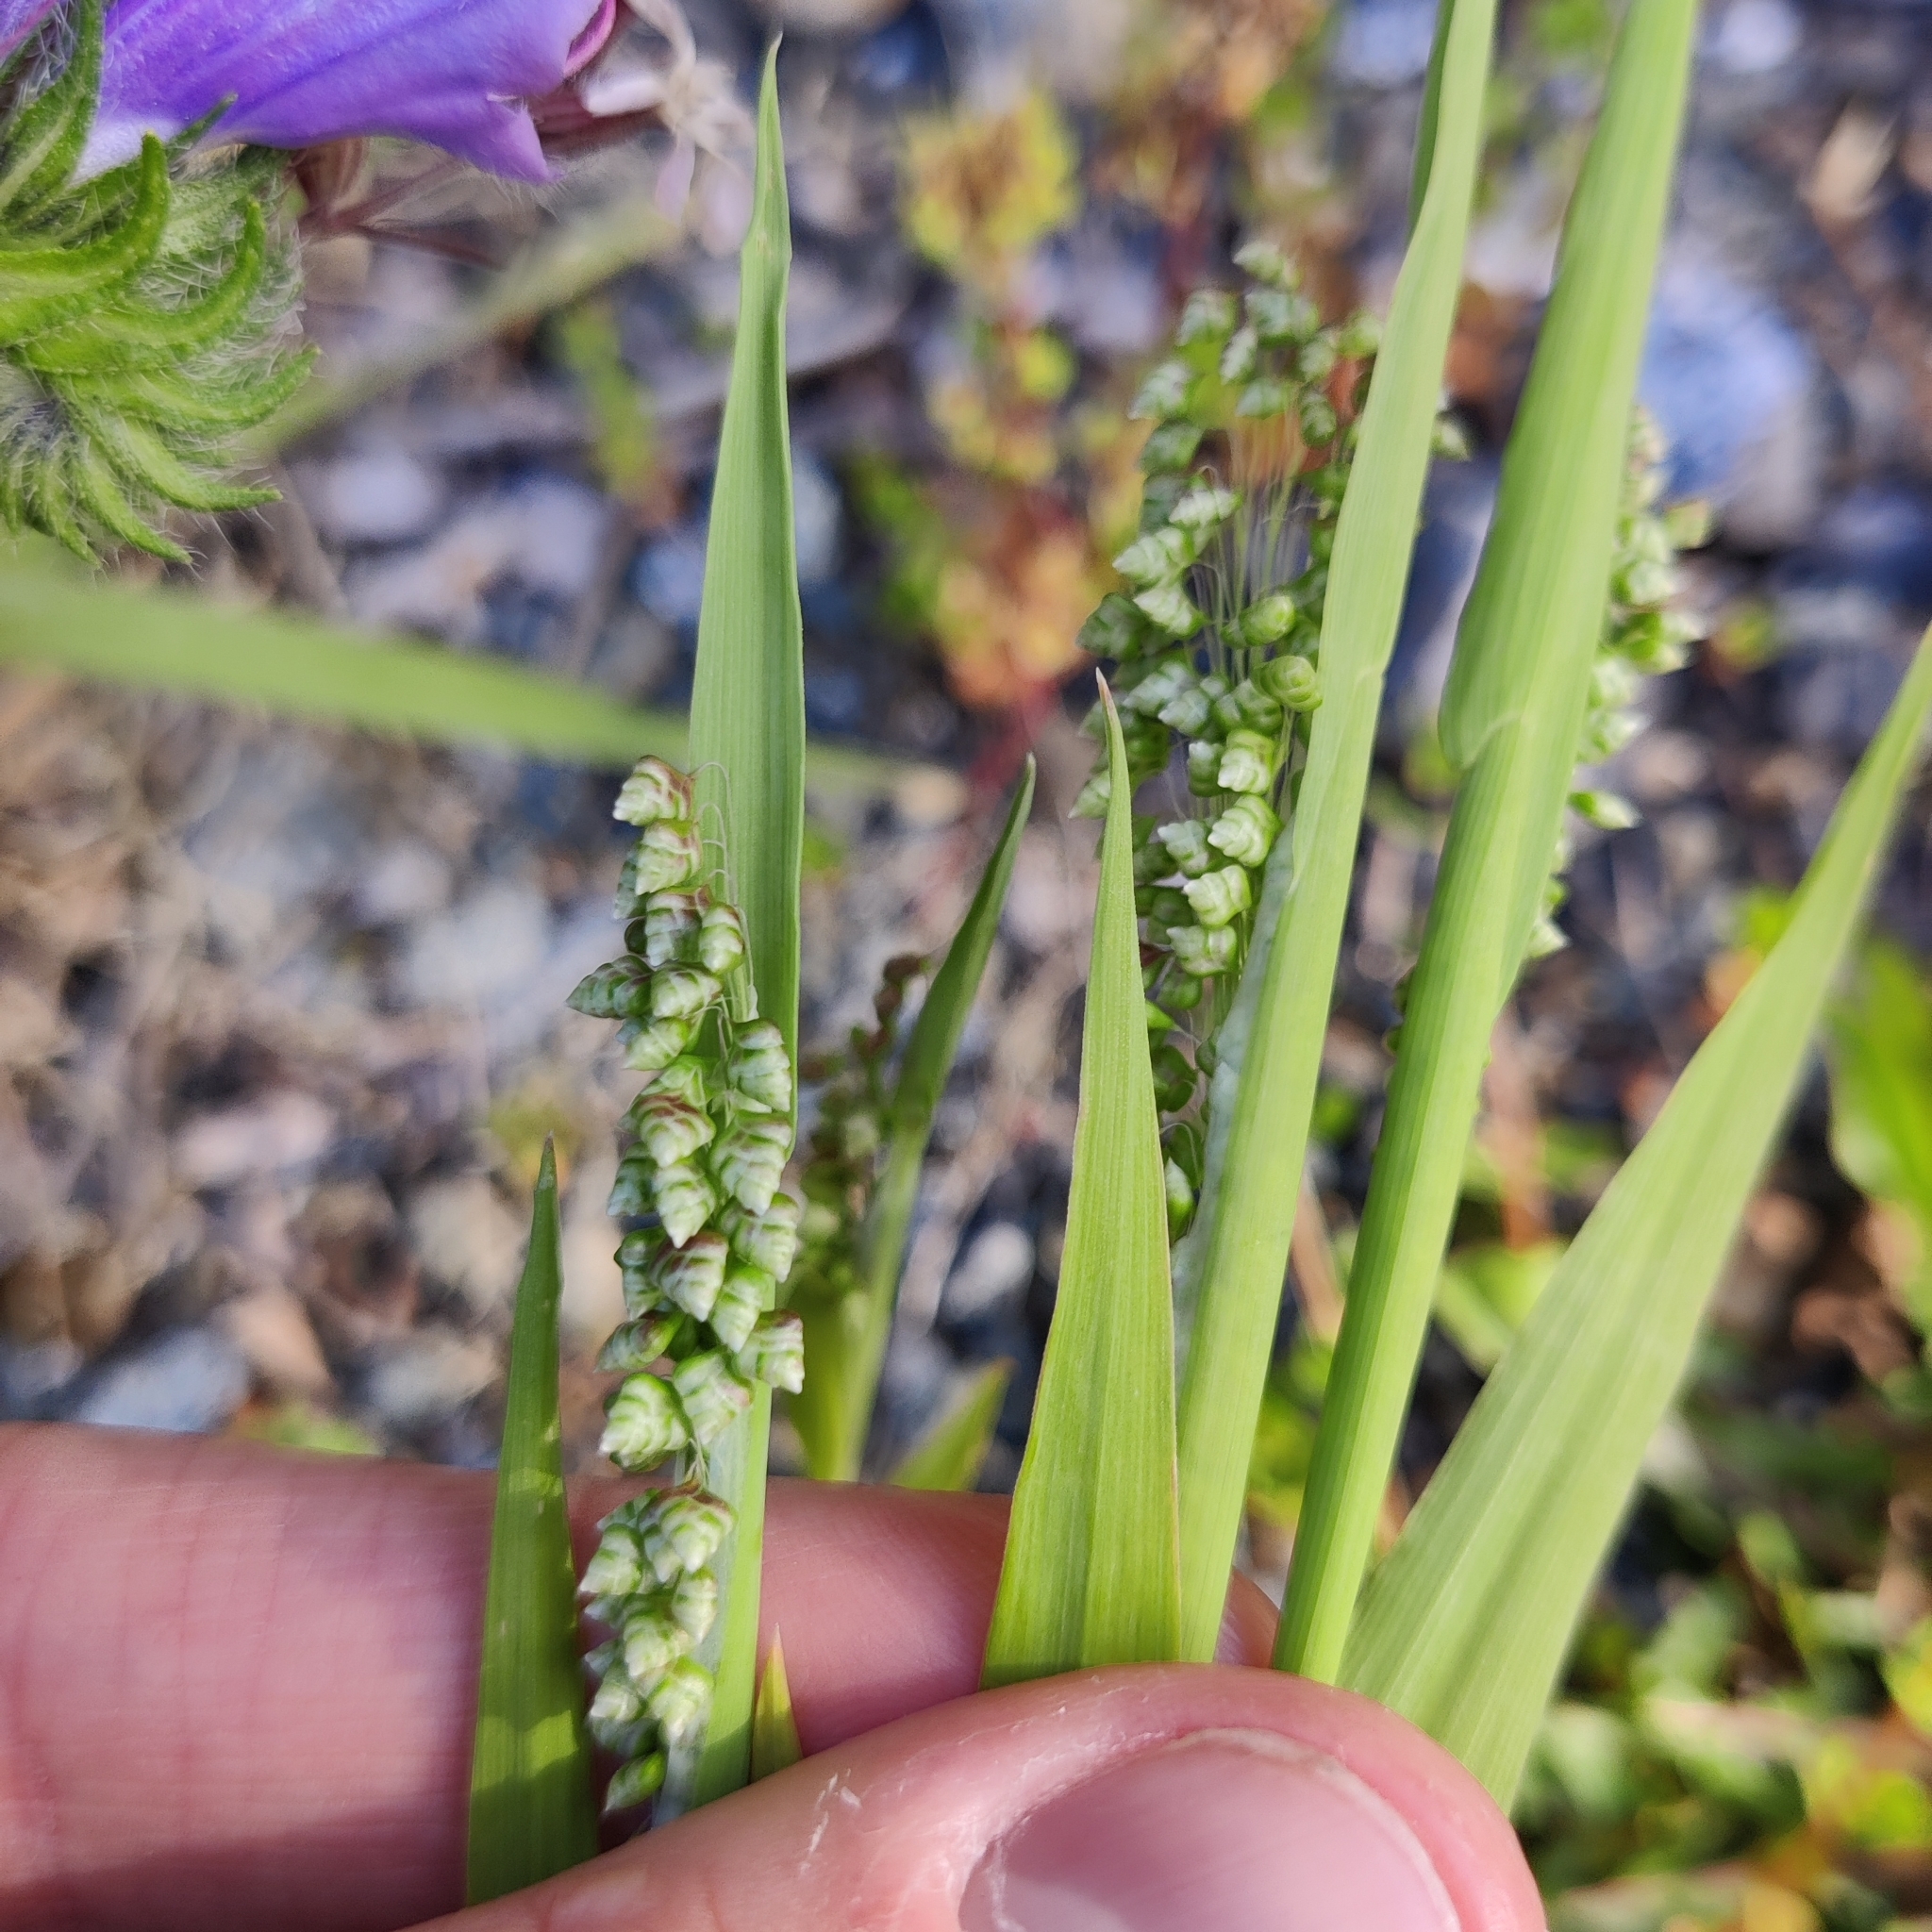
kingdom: Plantae
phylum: Tracheophyta
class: Liliopsida
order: Poales
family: Poaceae
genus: Briza
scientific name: Briza minor
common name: Lesser quaking-grass
